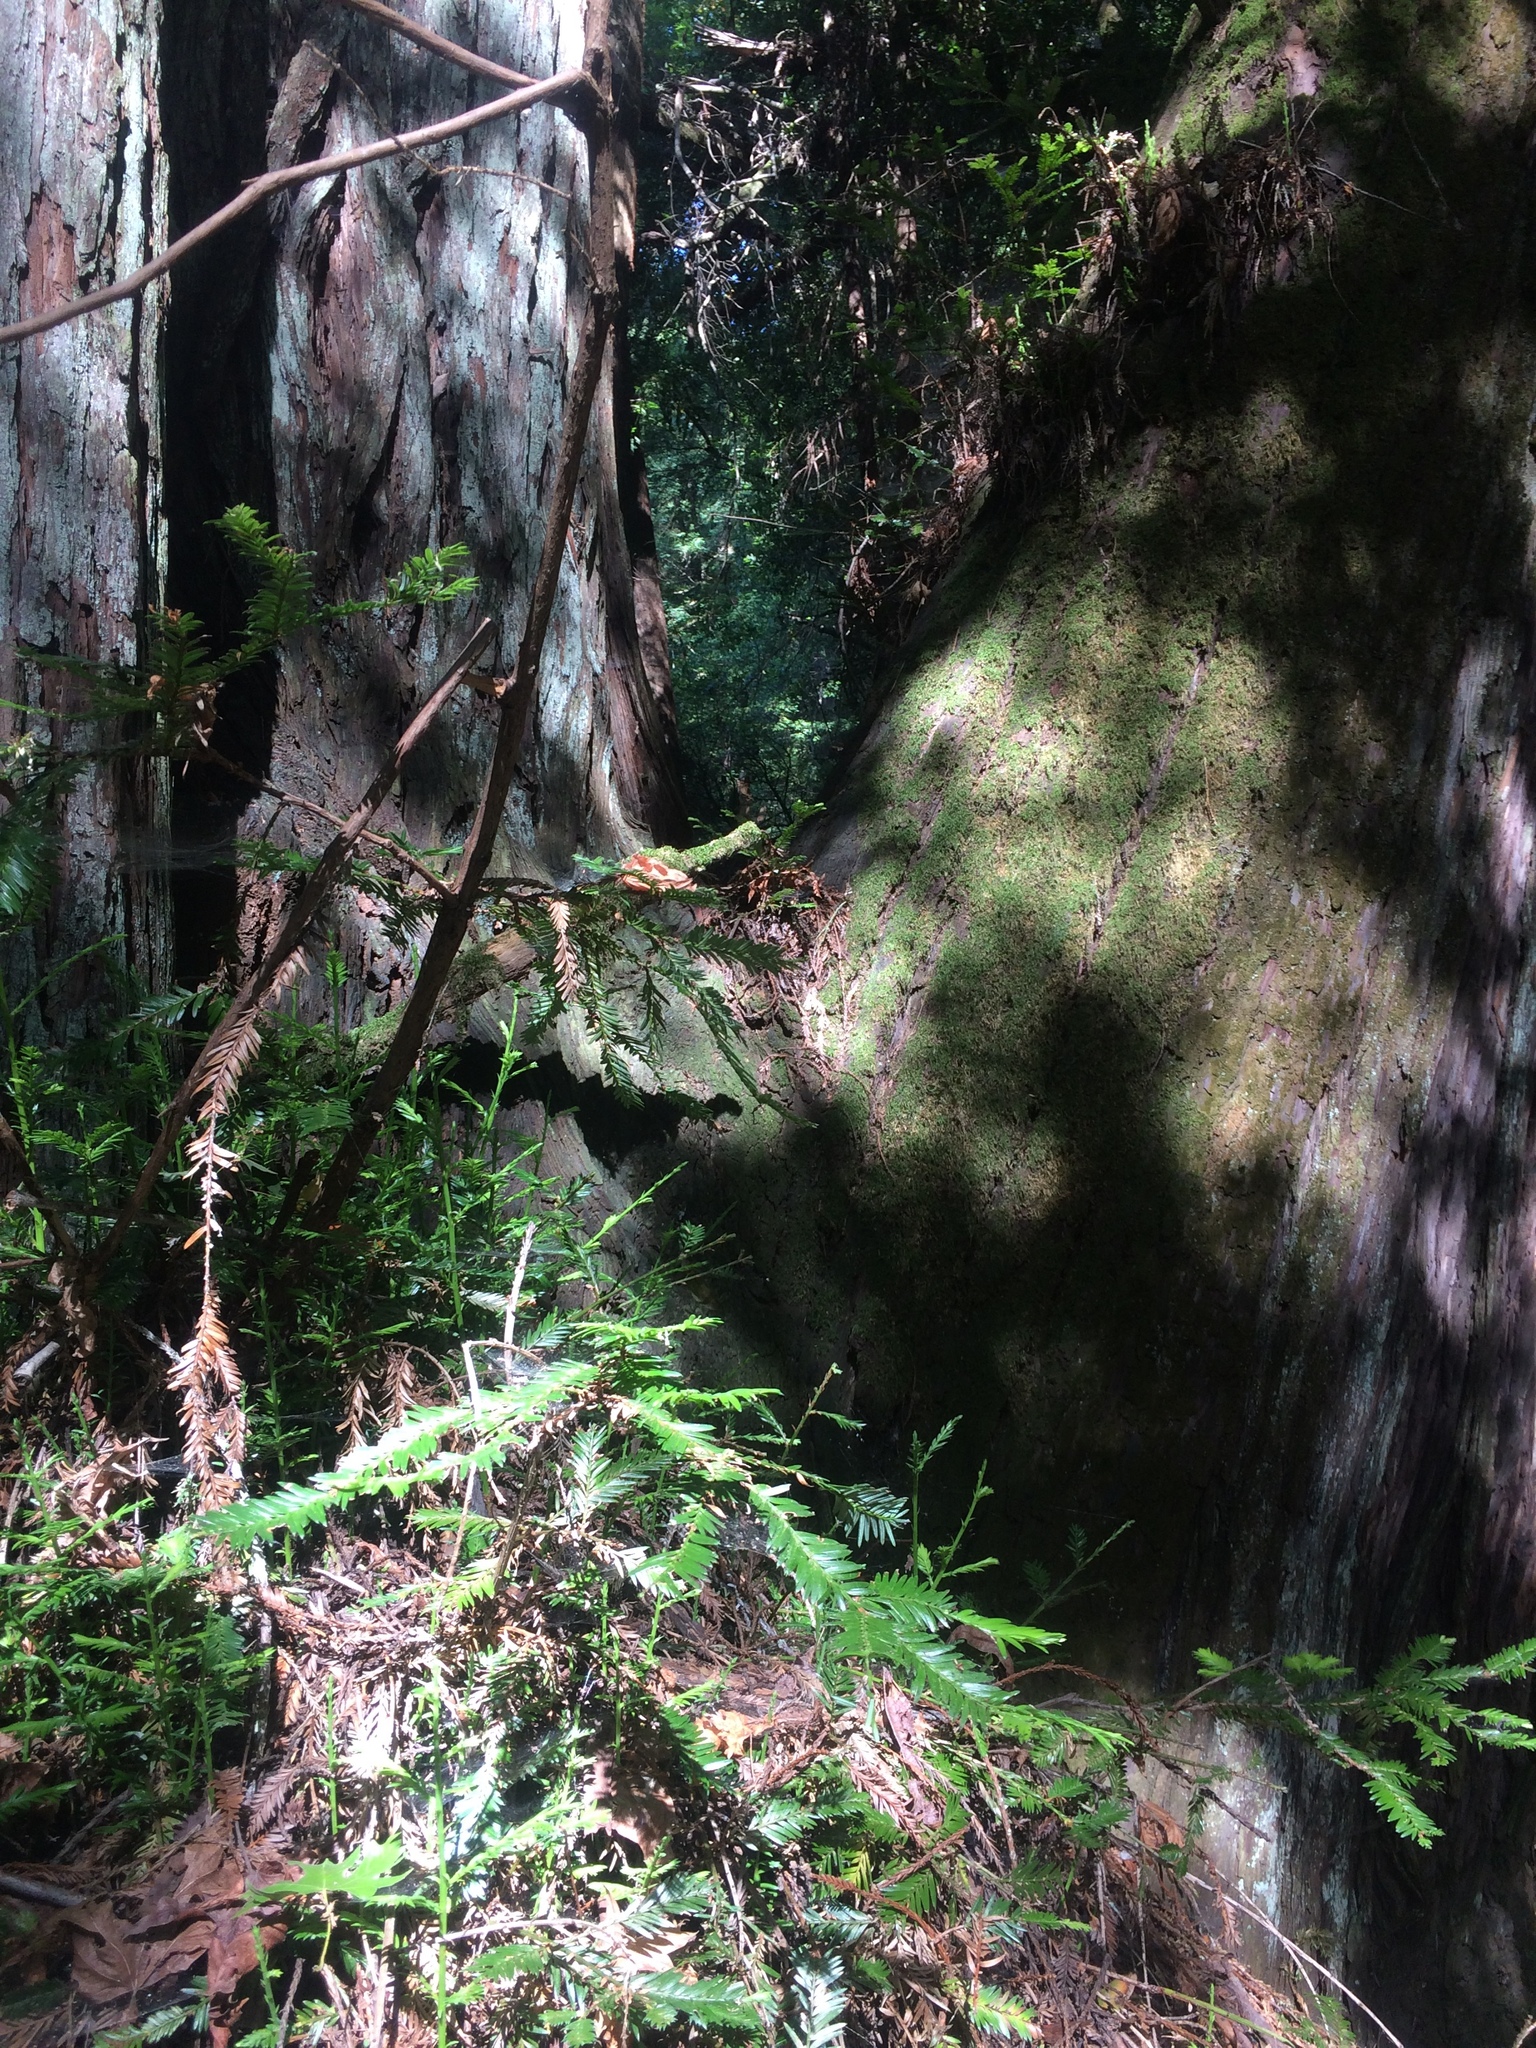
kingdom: Plantae
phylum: Tracheophyta
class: Pinopsida
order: Pinales
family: Cupressaceae
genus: Sequoia
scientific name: Sequoia sempervirens
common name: Coast redwood
